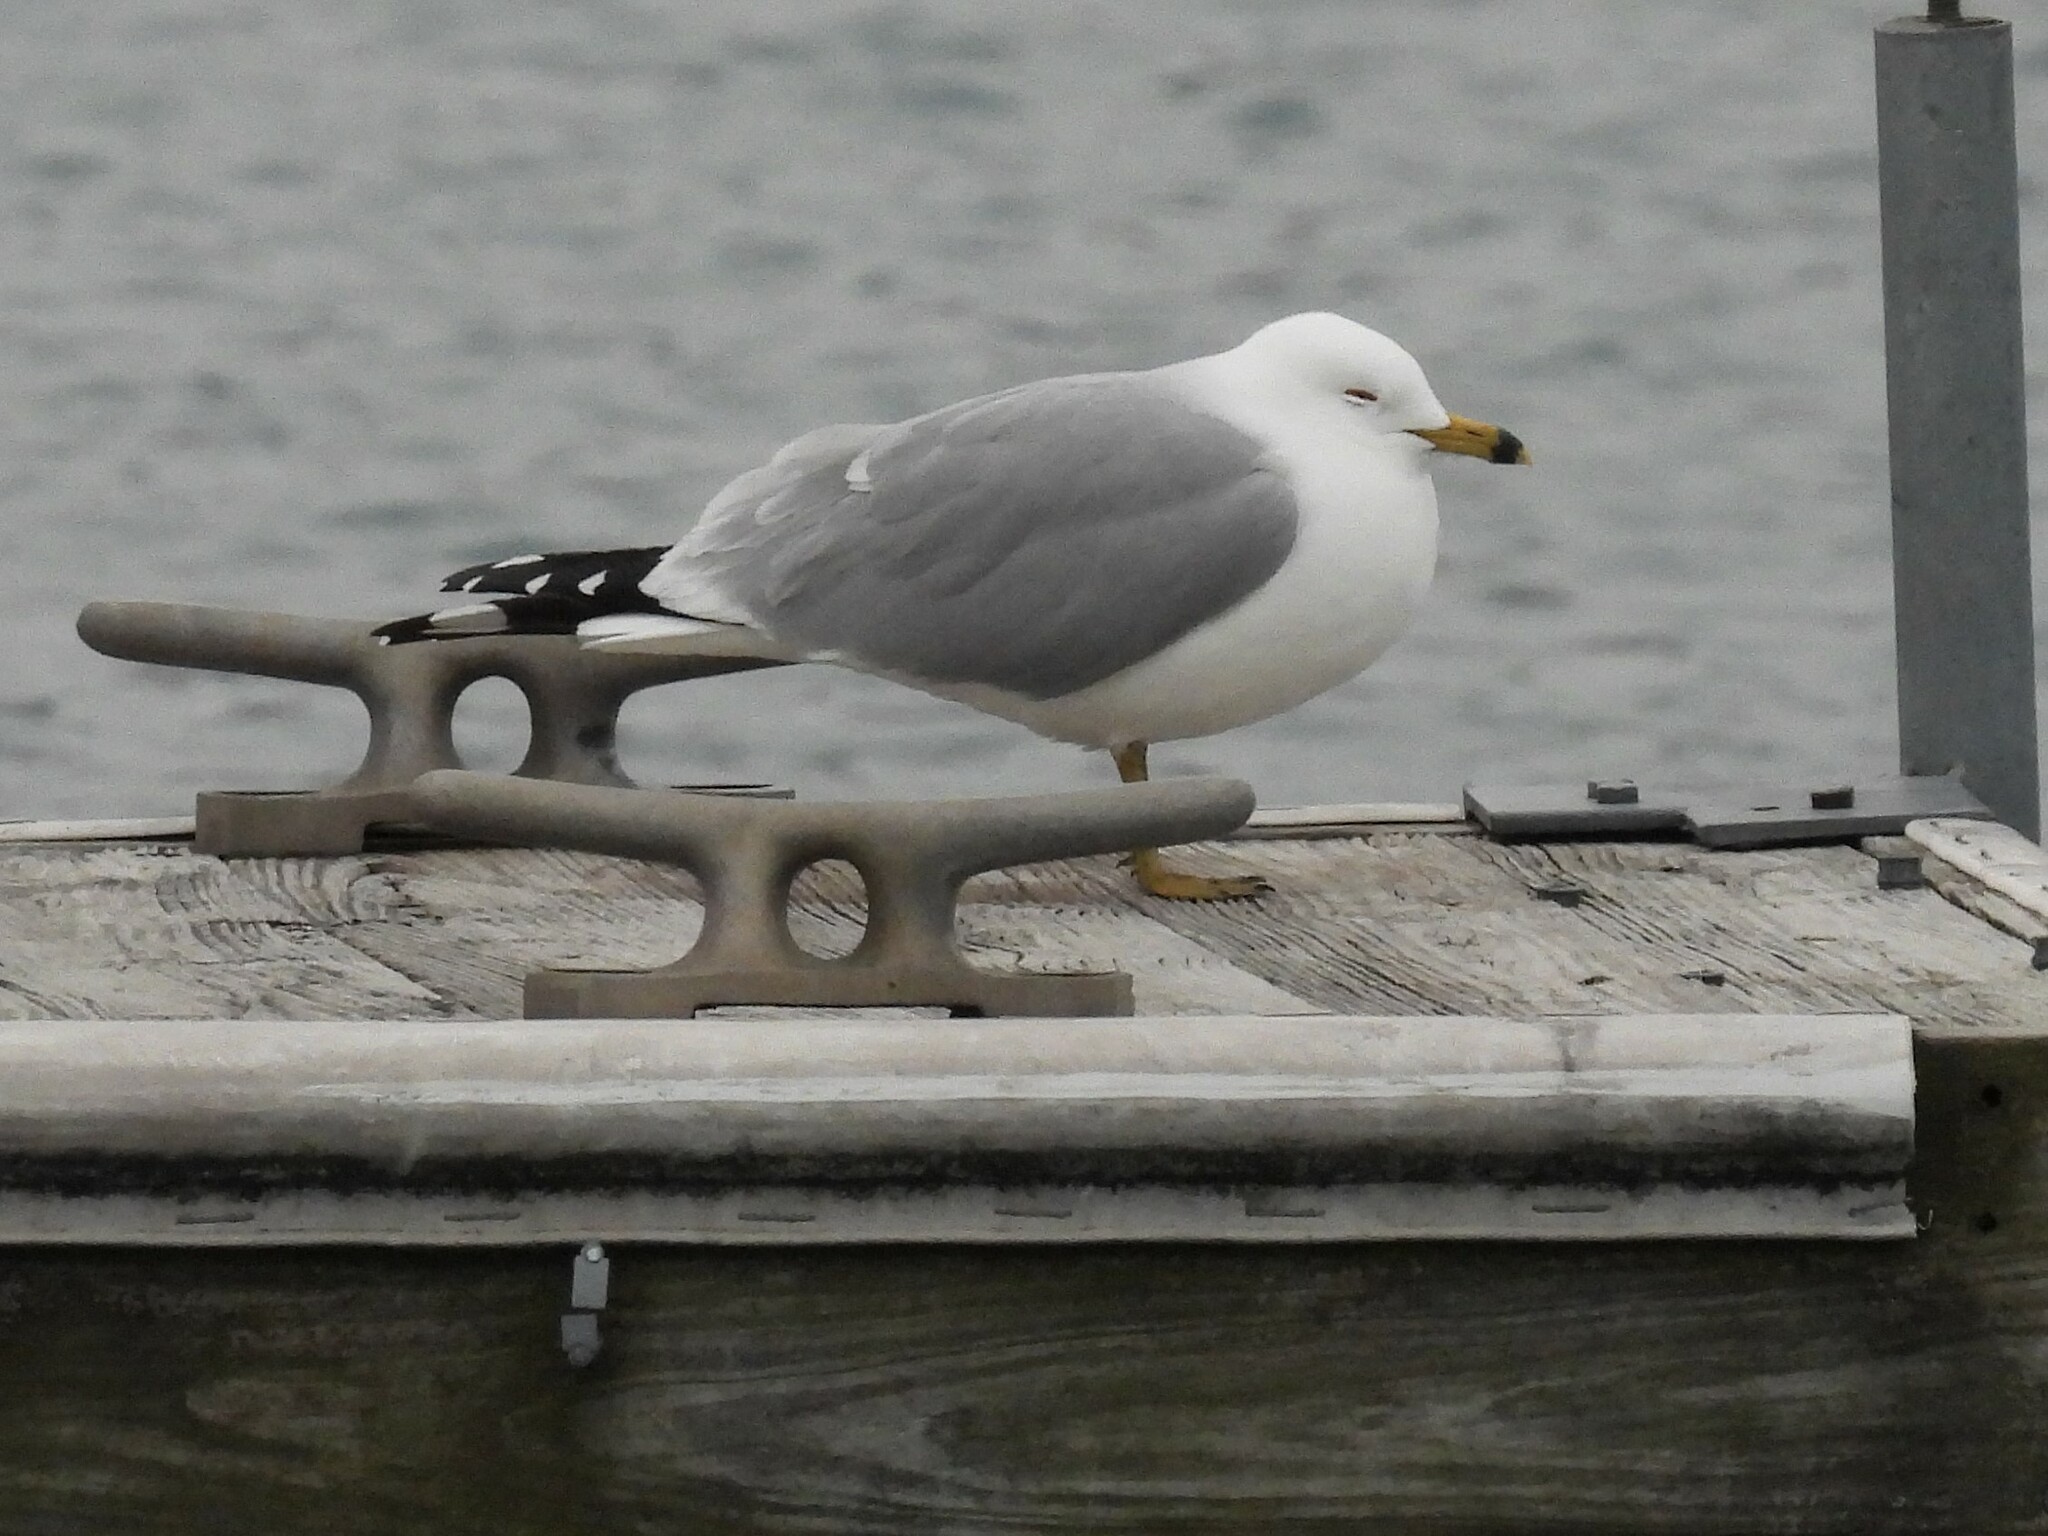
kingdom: Animalia
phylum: Chordata
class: Aves
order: Charadriiformes
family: Laridae
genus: Larus
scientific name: Larus delawarensis
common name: Ring-billed gull
